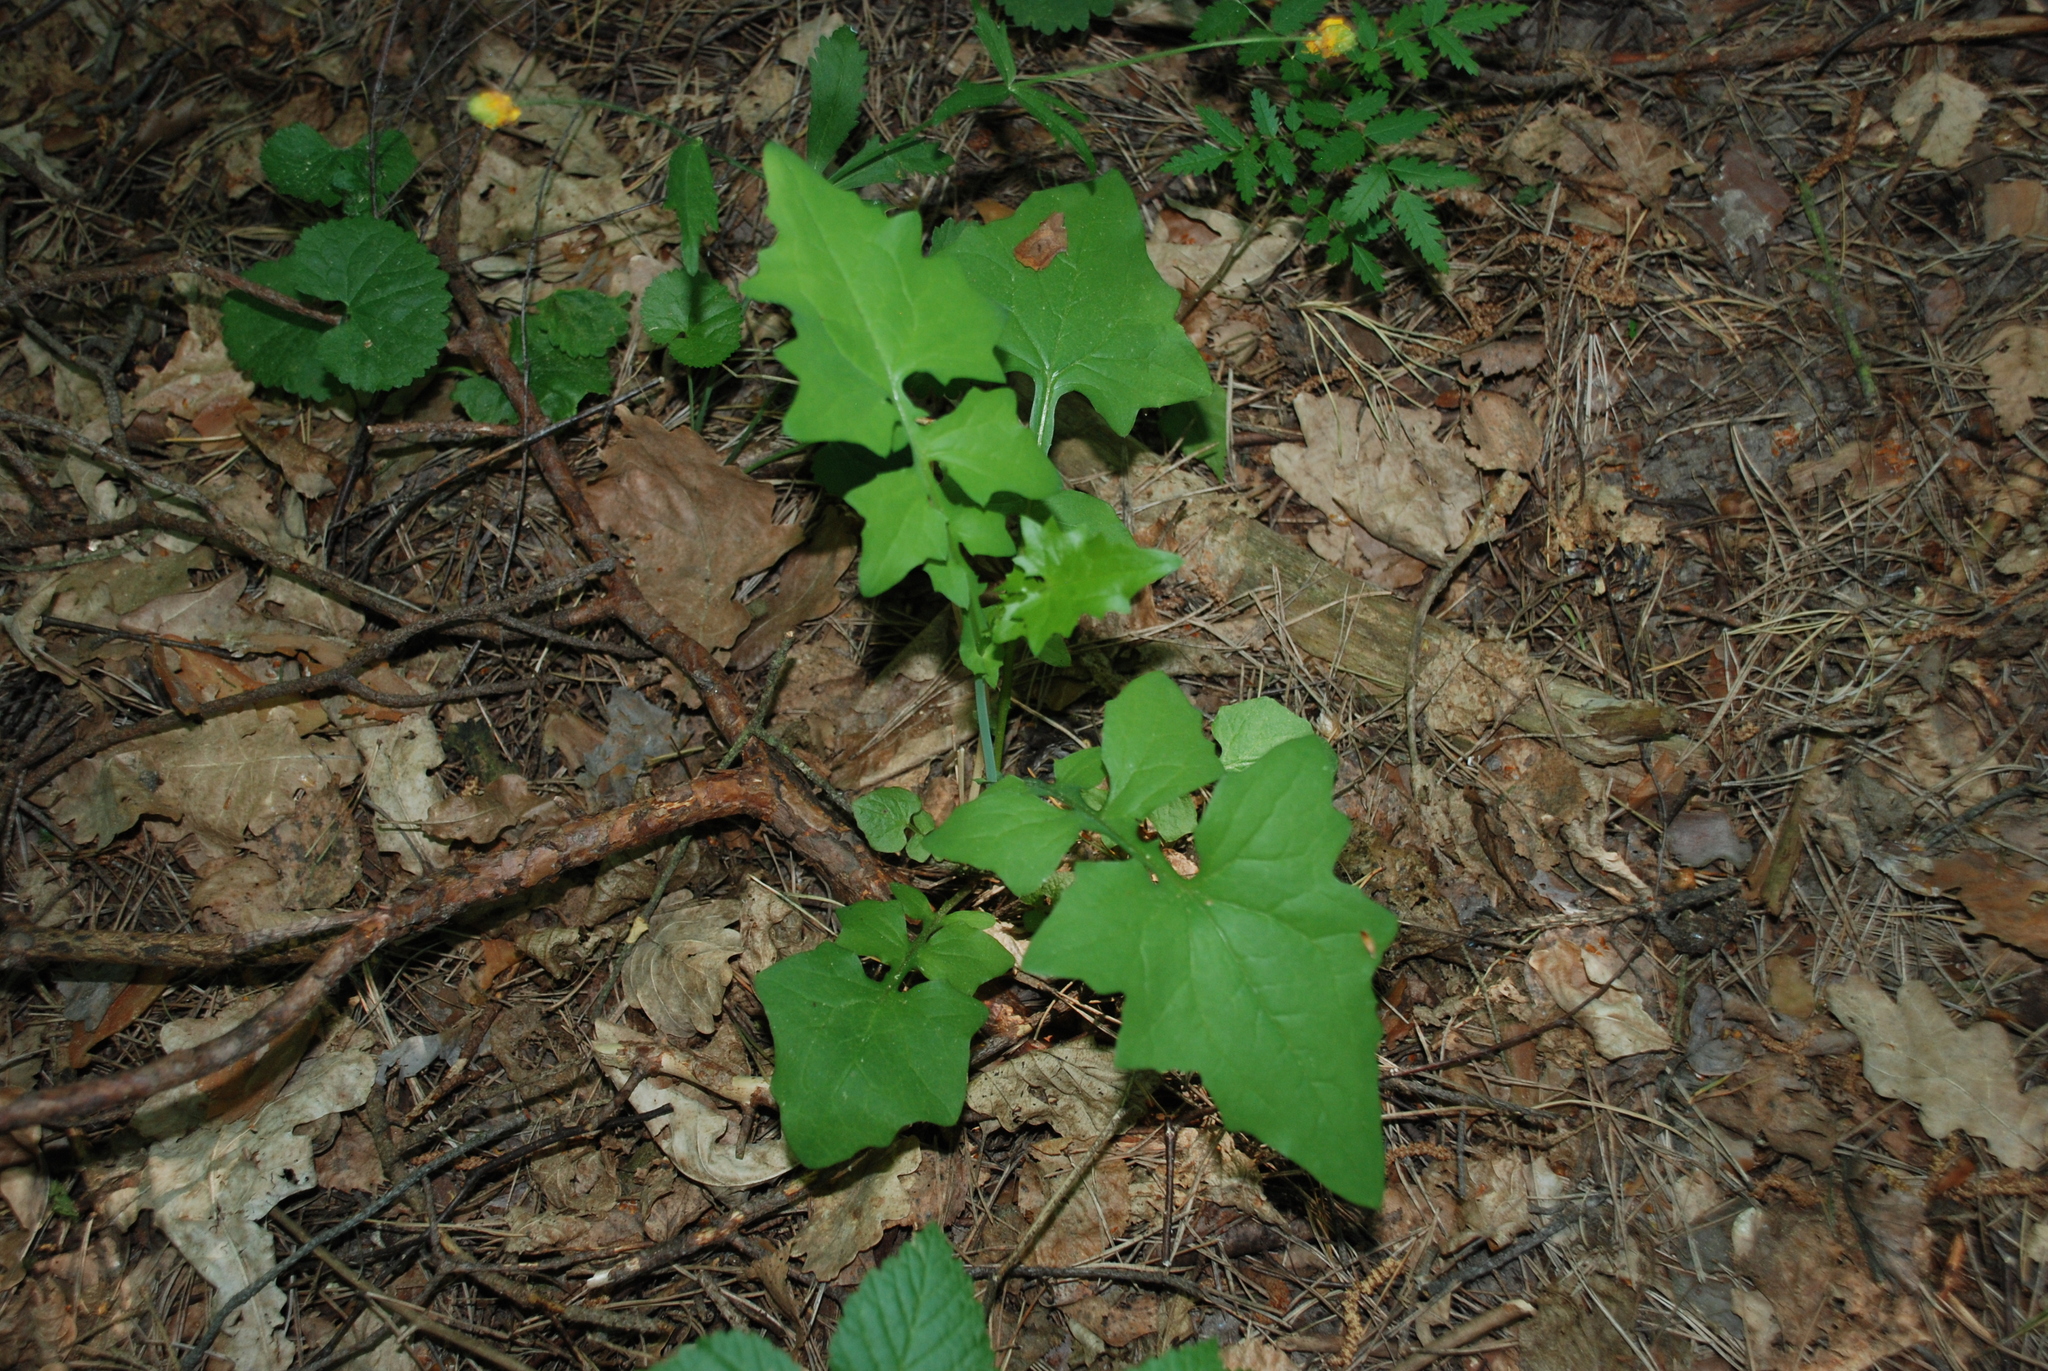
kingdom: Plantae
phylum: Tracheophyta
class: Magnoliopsida
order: Asterales
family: Asteraceae
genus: Mycelis
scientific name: Mycelis muralis
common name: Wall lettuce
